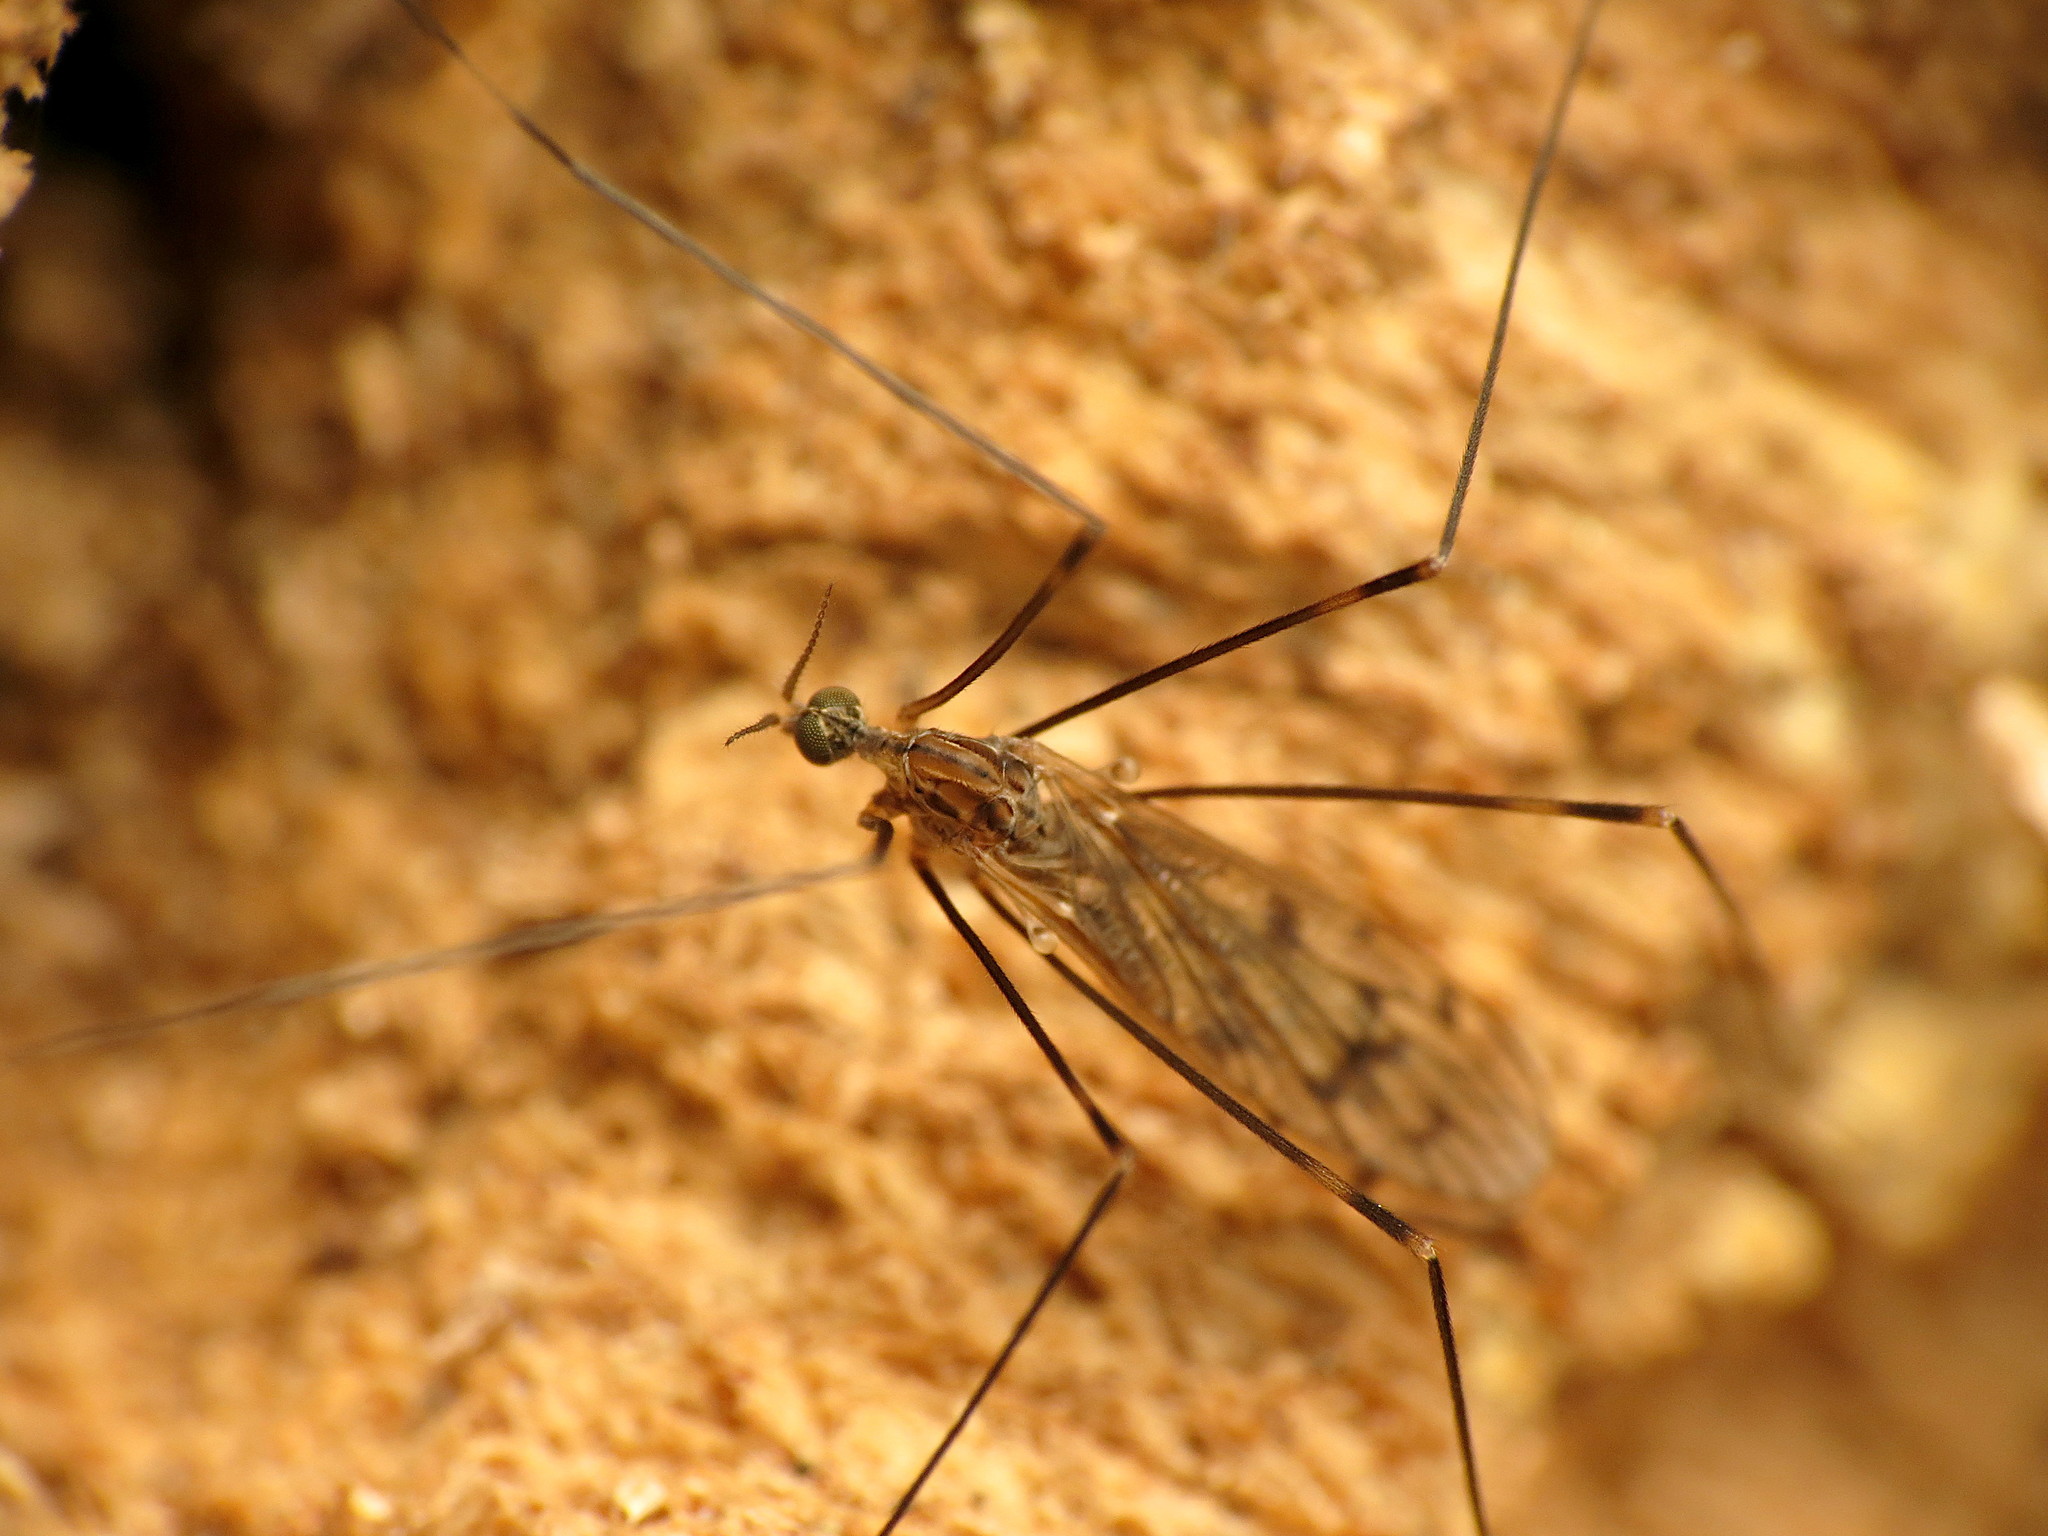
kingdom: Animalia
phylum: Arthropoda
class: Insecta
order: Diptera
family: Limoniidae
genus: Metalimnobia
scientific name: Metalimnobia novaeangliae
